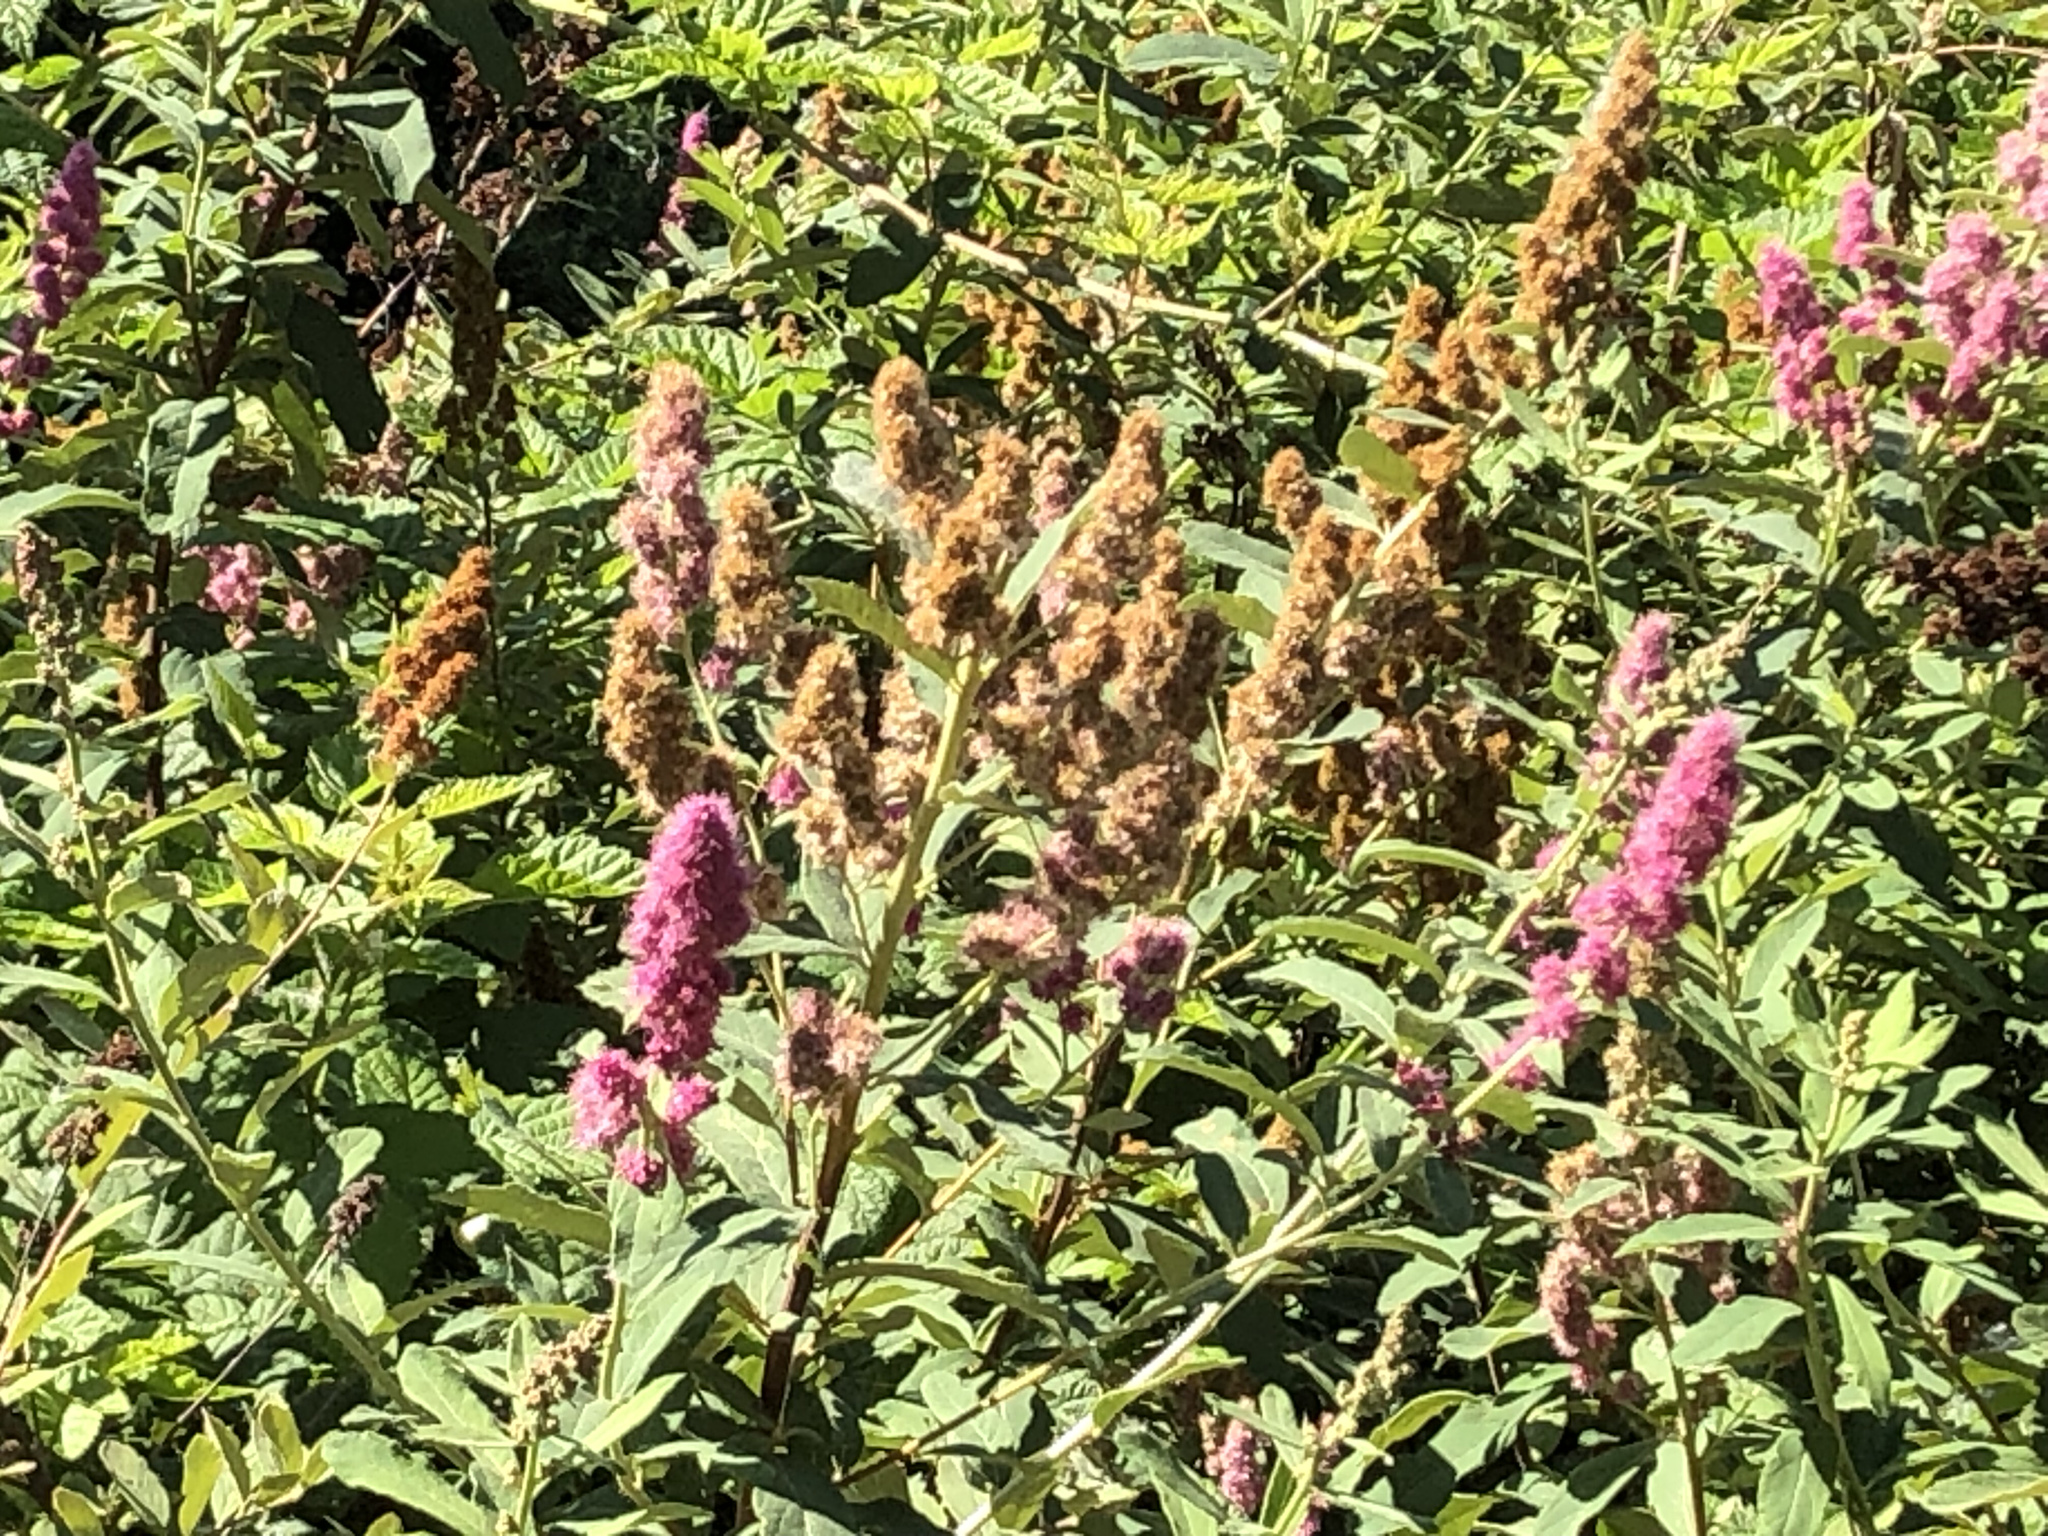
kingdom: Plantae
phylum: Tracheophyta
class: Magnoliopsida
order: Rosales
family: Rosaceae
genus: Spiraea
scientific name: Spiraea douglasii
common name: Steeplebush
